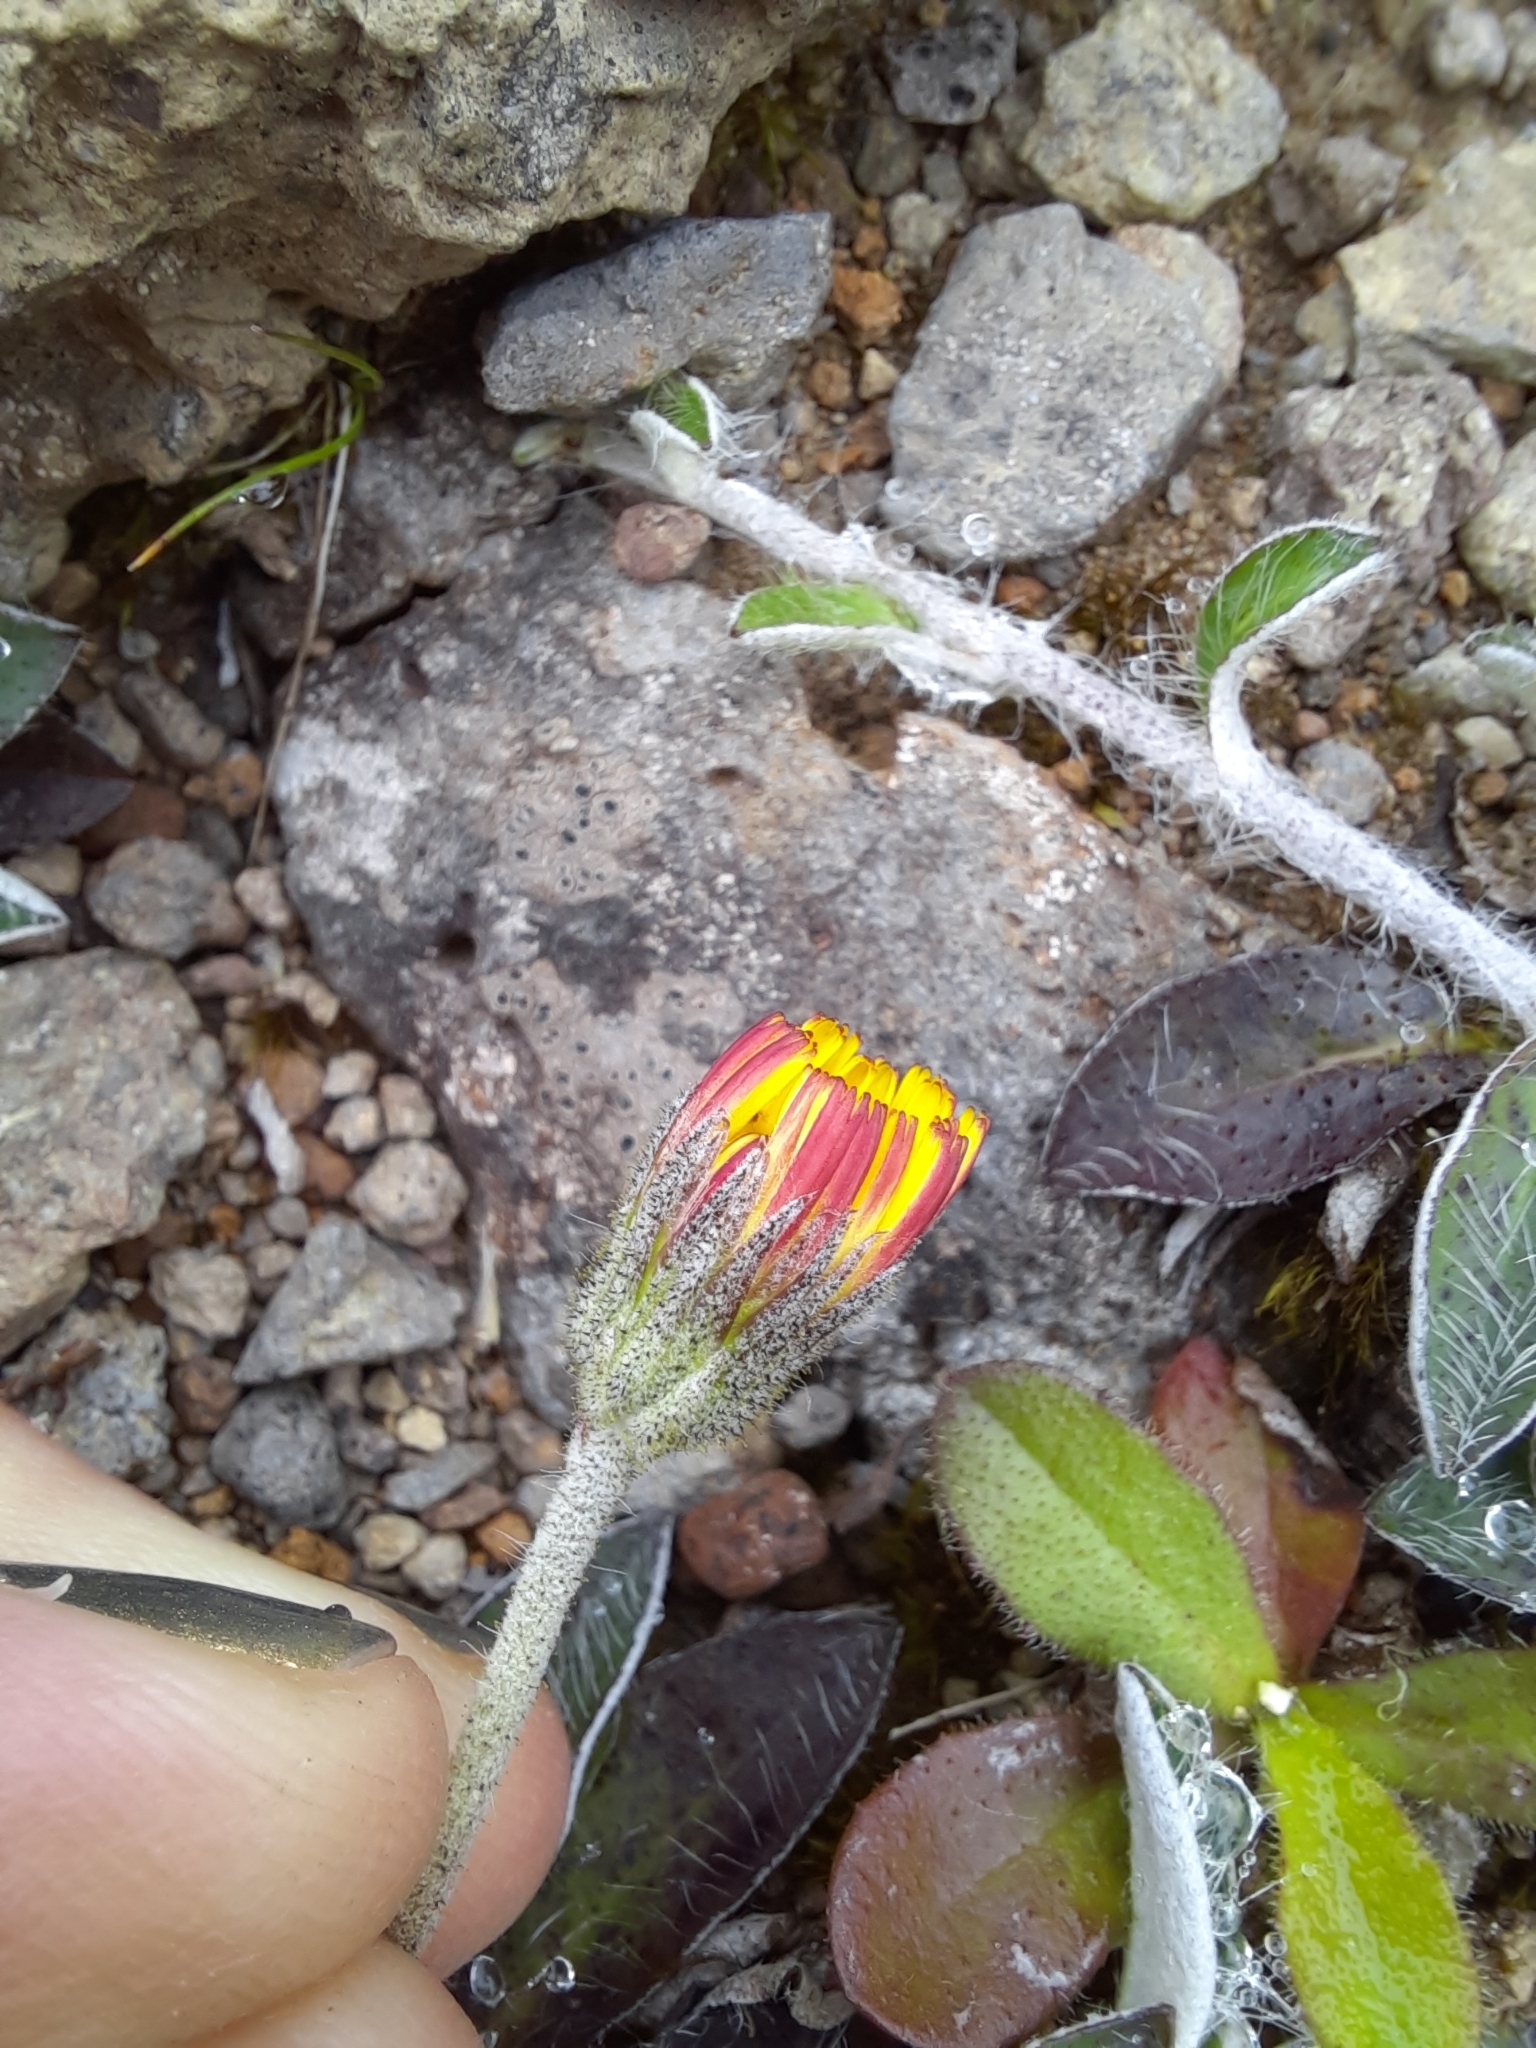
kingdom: Plantae
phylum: Tracheophyta
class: Magnoliopsida
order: Asterales
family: Asteraceae
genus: Pilosella
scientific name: Pilosella officinarum
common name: Mouse-ear hawkweed
